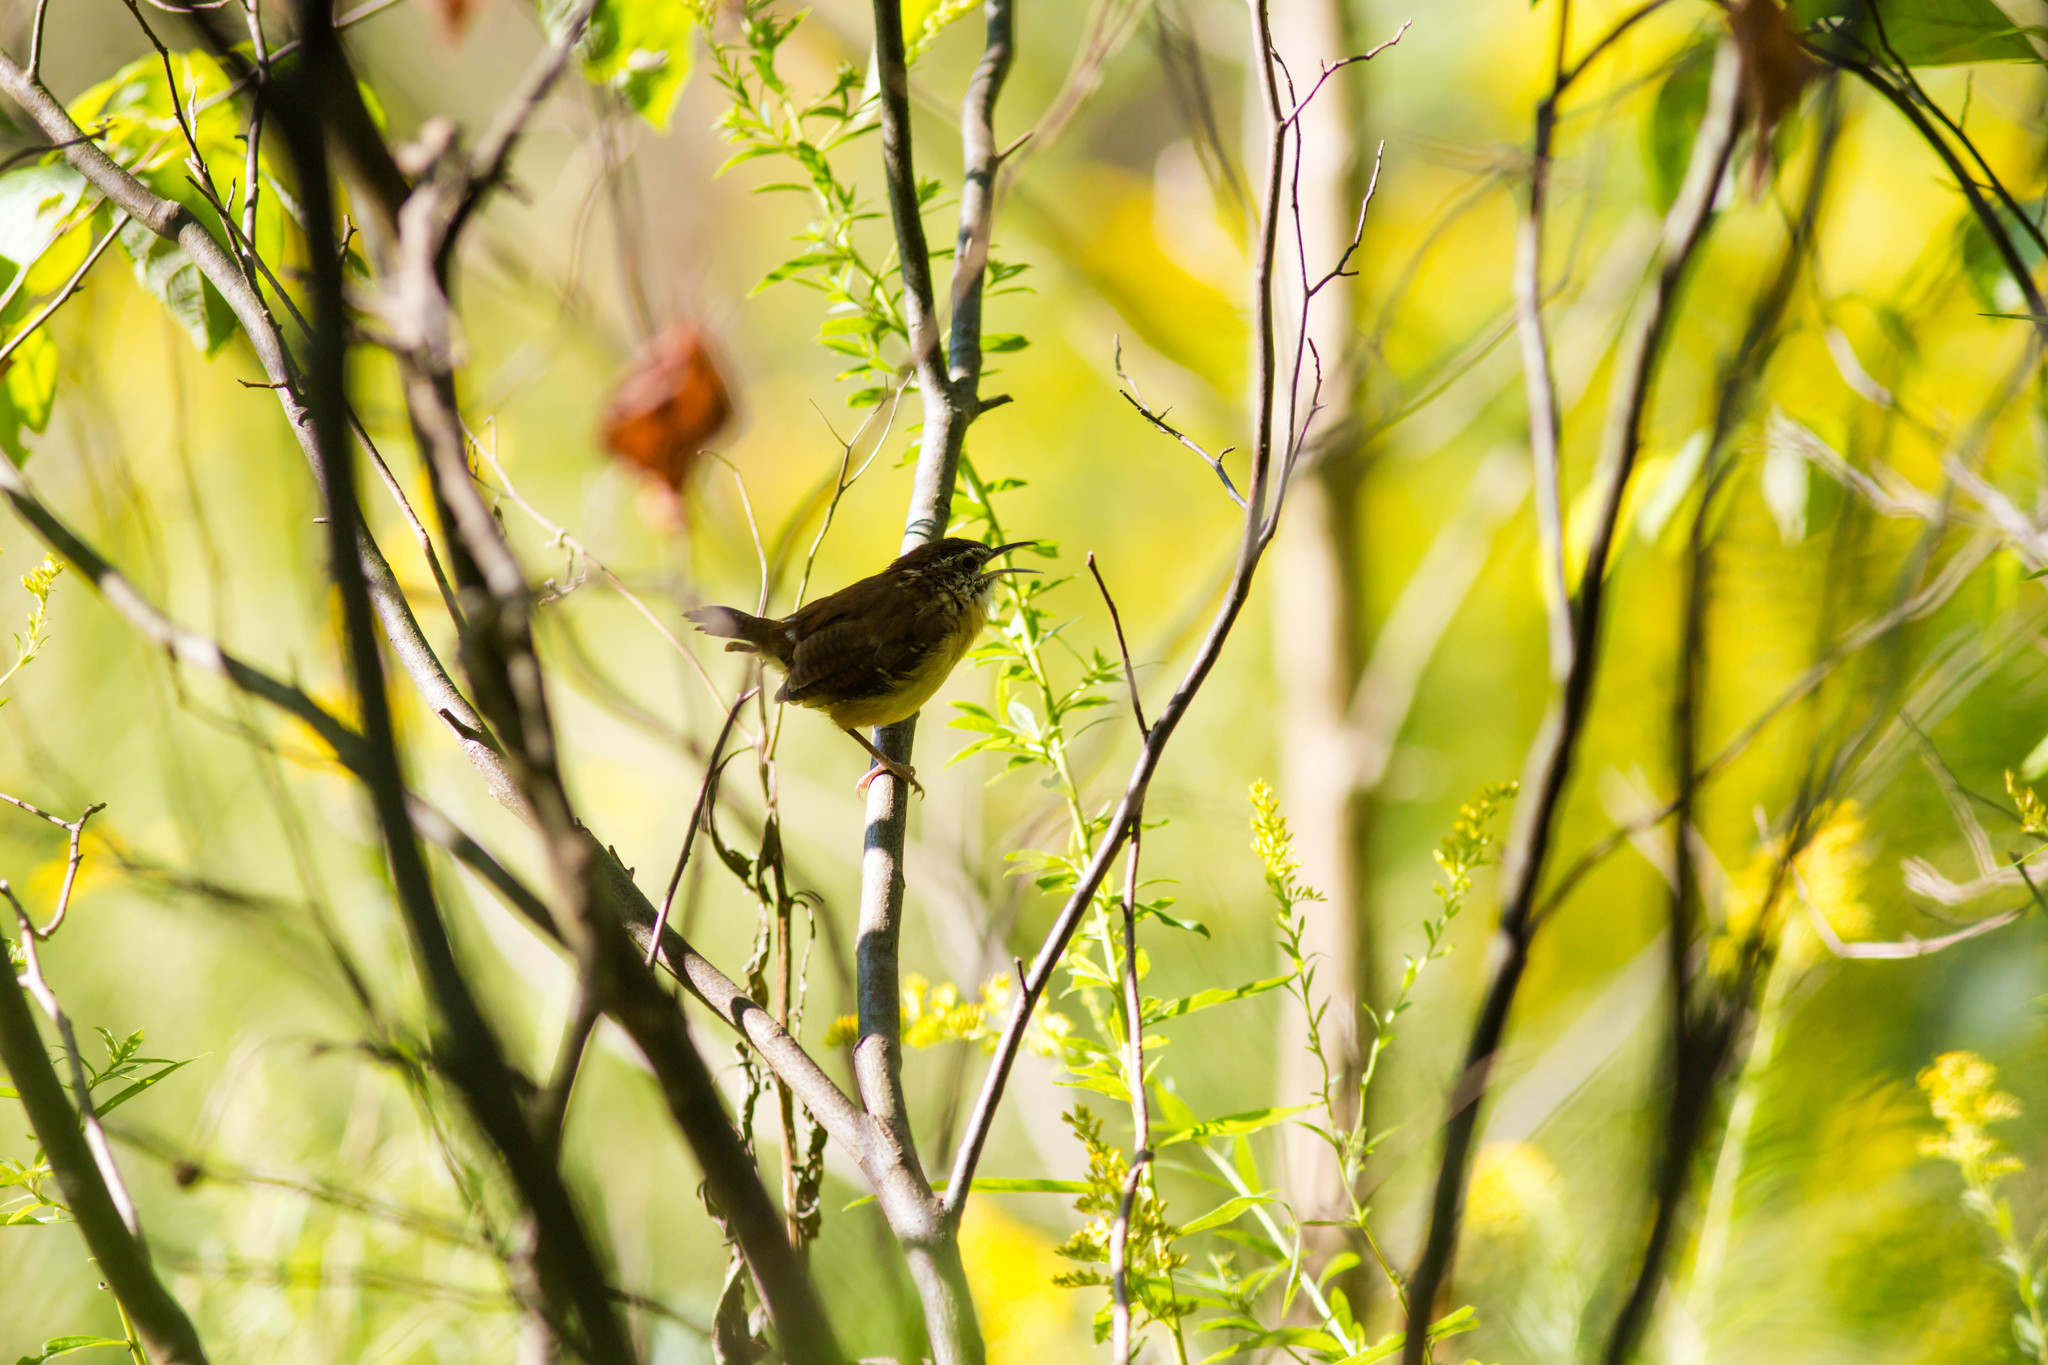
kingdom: Animalia
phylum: Chordata
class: Aves
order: Passeriformes
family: Troglodytidae
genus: Thryothorus
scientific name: Thryothorus ludovicianus
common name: Carolina wren
